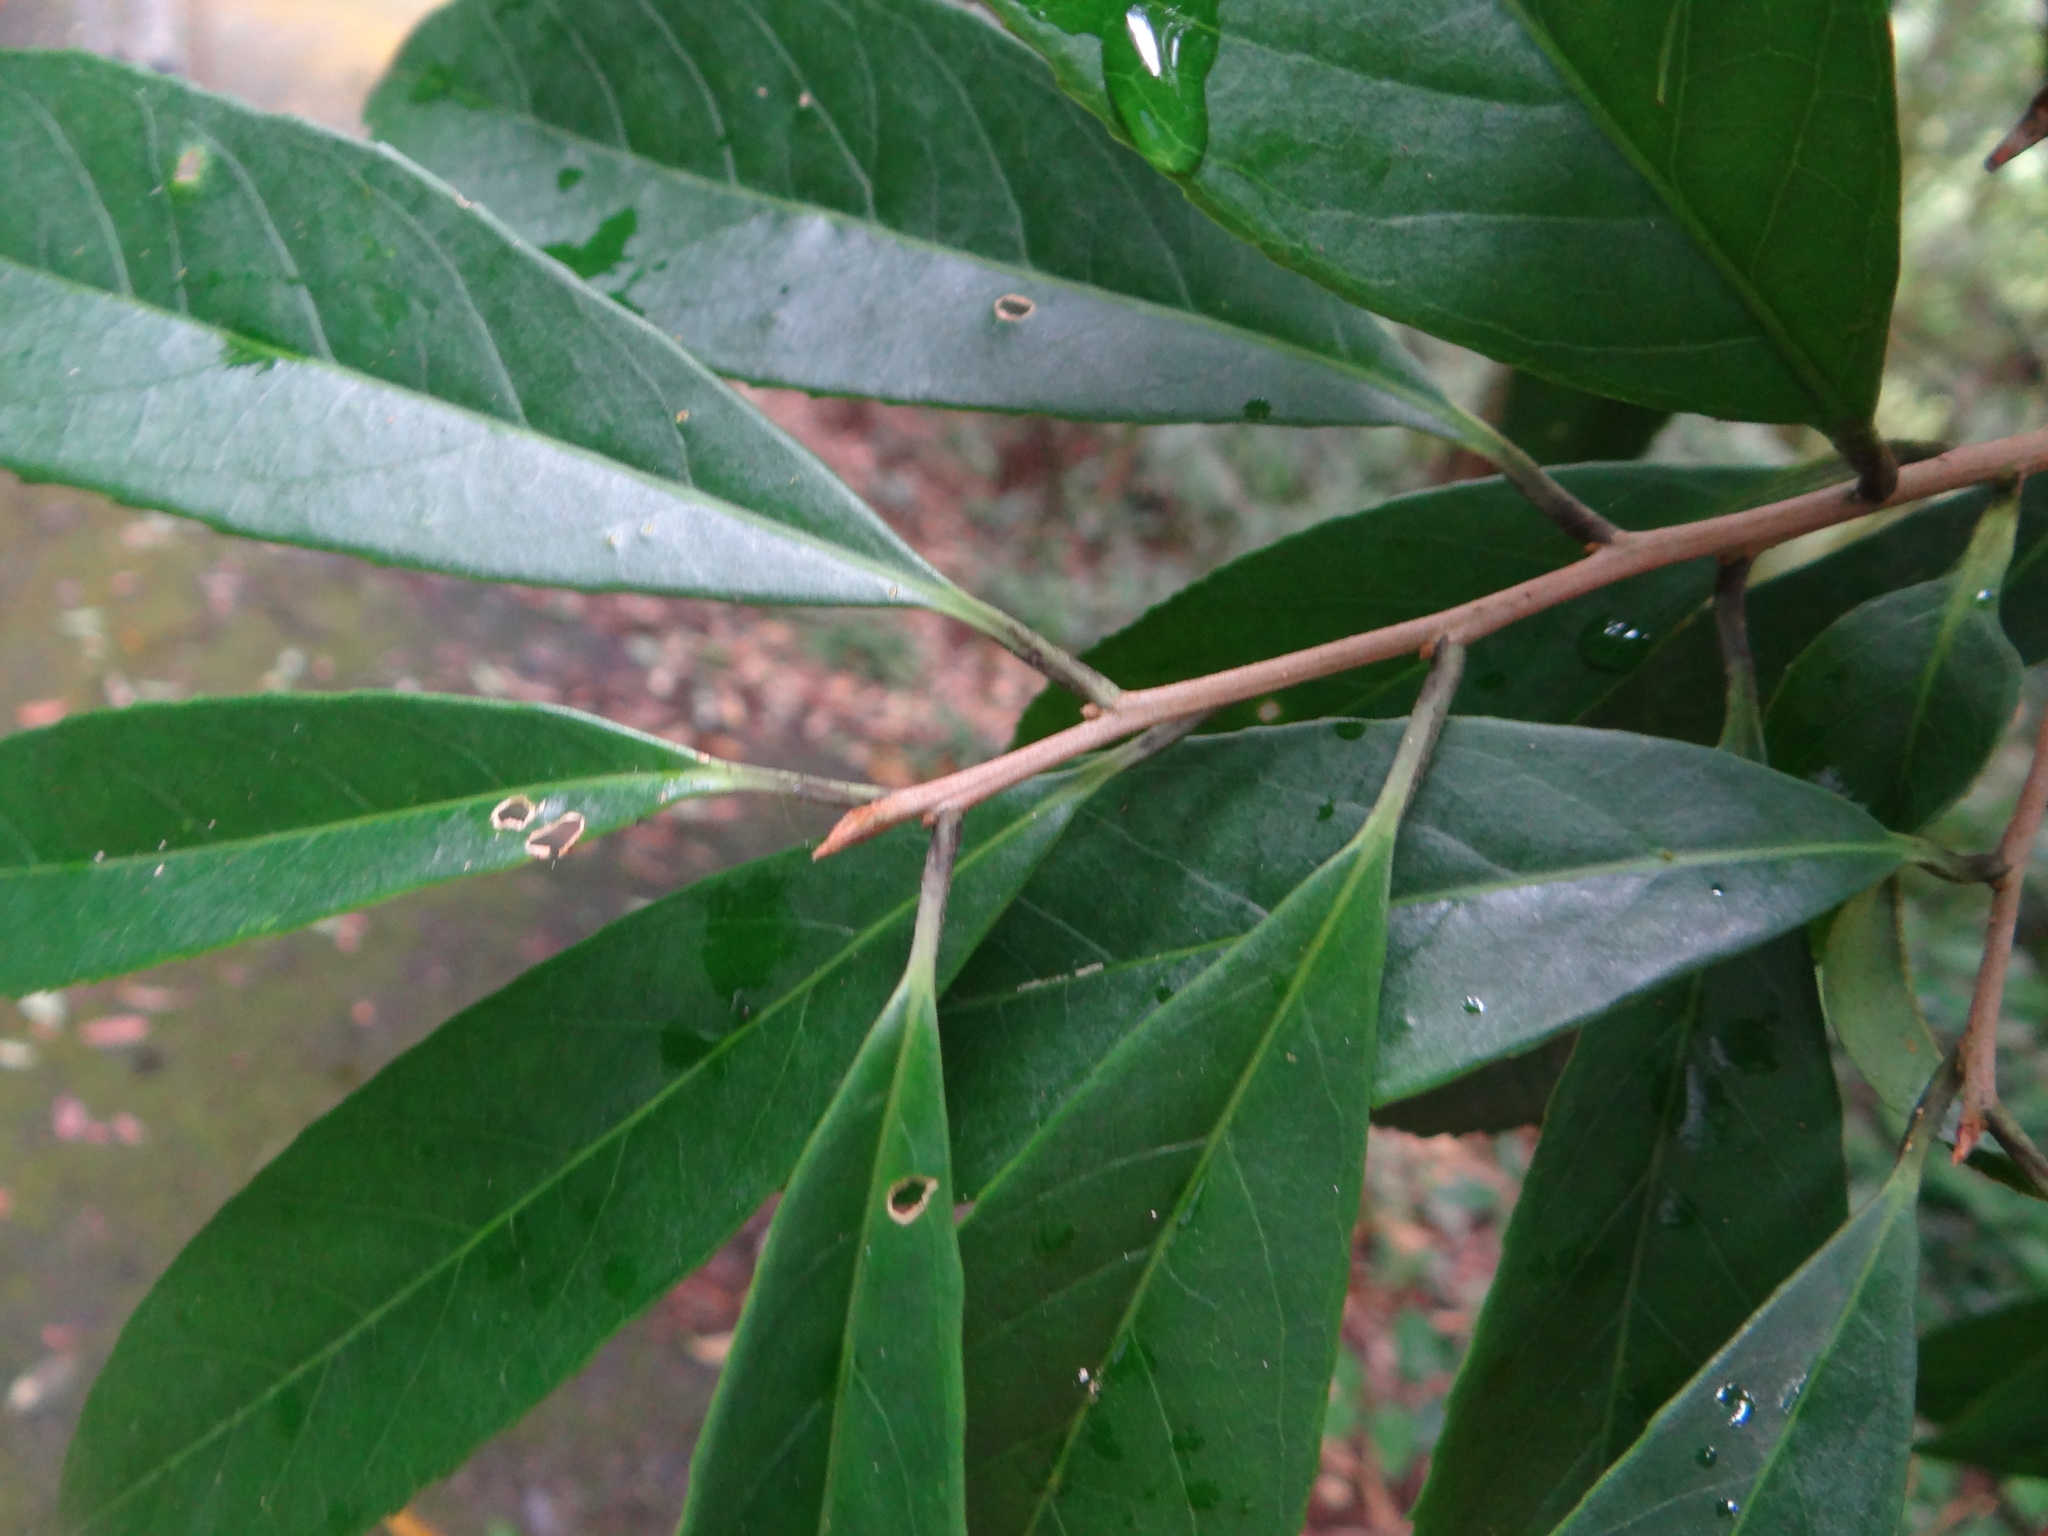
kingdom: Plantae
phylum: Tracheophyta
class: Magnoliopsida
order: Ericales
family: Symplocaceae
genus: Symplocos
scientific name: Symplocos acuminata
